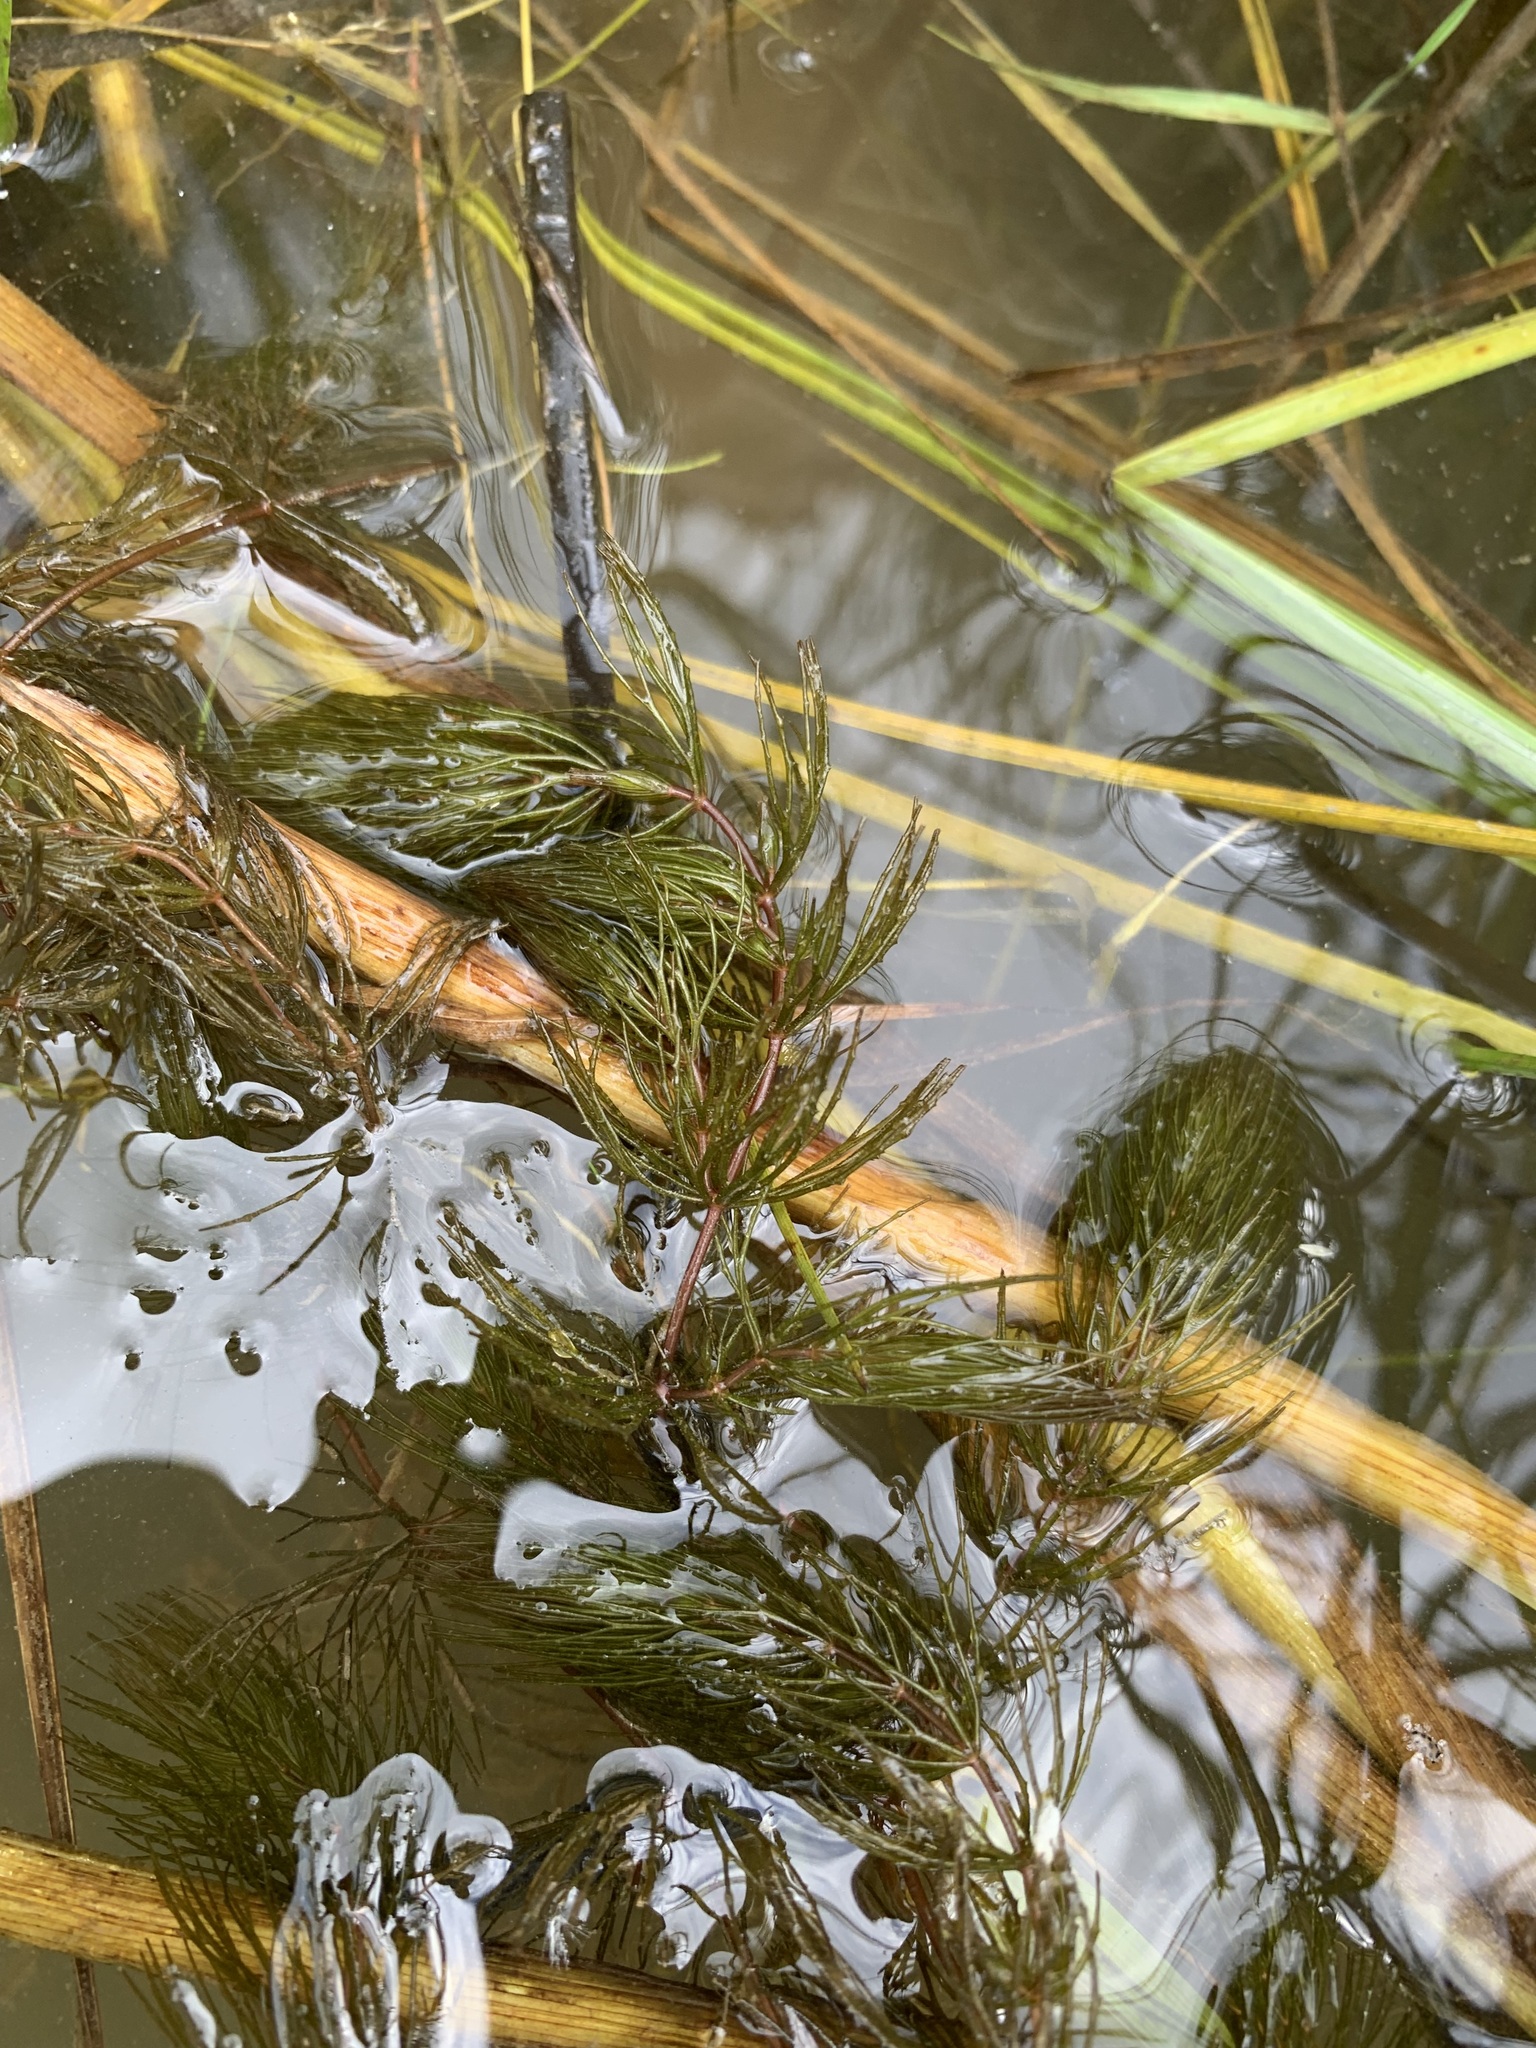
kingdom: Plantae
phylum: Tracheophyta
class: Magnoliopsida
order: Ceratophyllales
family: Ceratophyllaceae
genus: Ceratophyllum
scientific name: Ceratophyllum demersum
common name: Rigid hornwort
